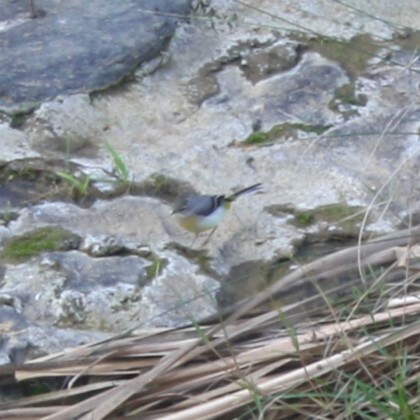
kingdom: Animalia
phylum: Chordata
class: Aves
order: Passeriformes
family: Motacillidae
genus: Motacilla
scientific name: Motacilla cinerea
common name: Grey wagtail
